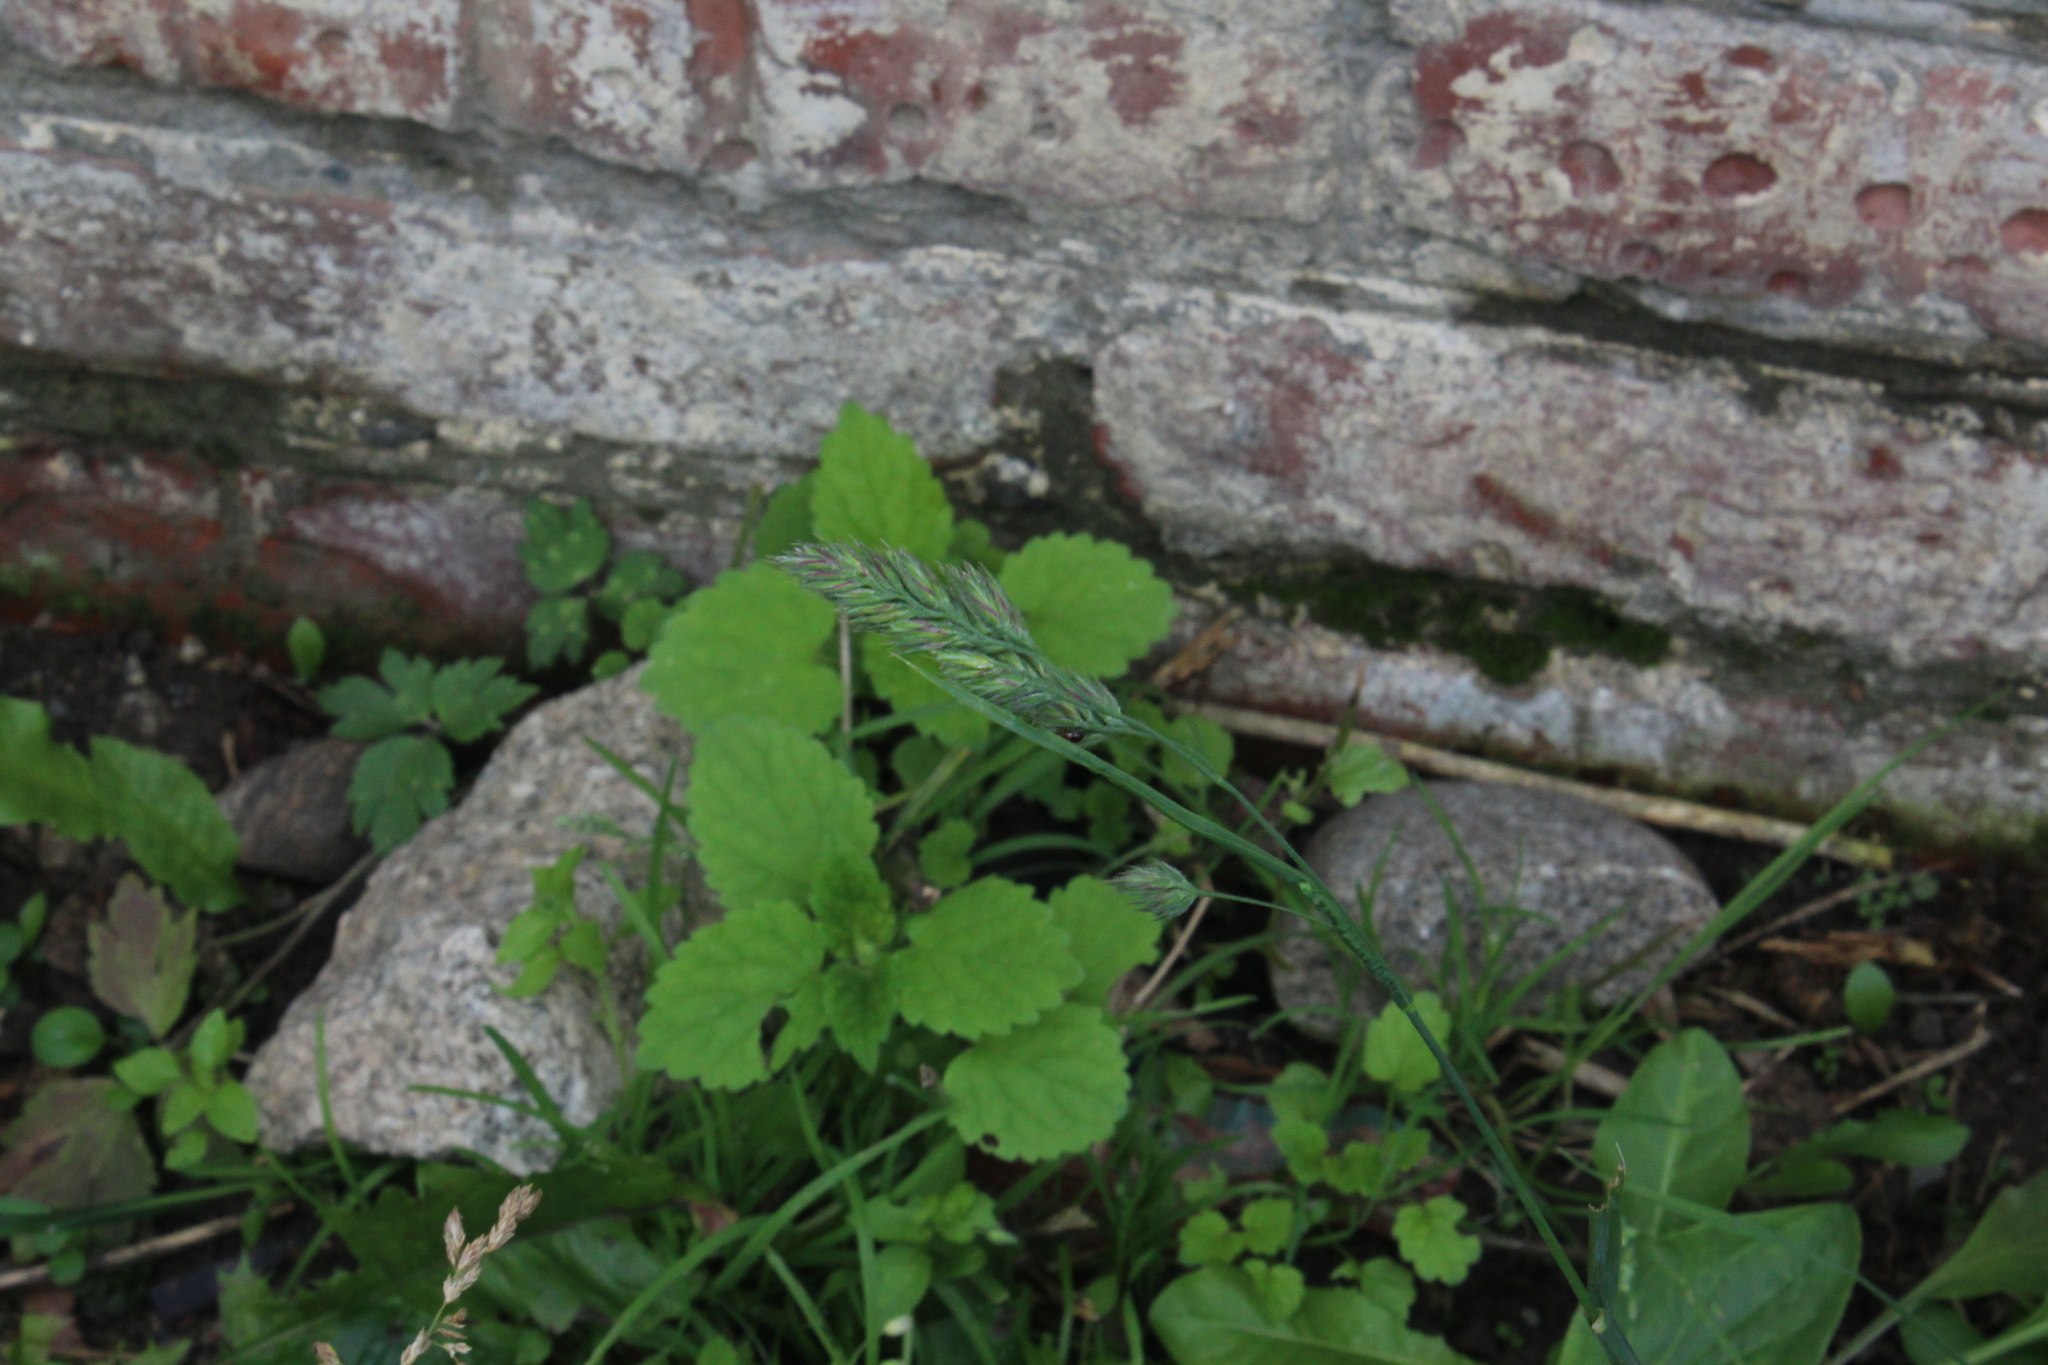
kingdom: Plantae
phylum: Tracheophyta
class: Liliopsida
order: Poales
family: Poaceae
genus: Dactylis
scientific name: Dactylis glomerata
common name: Orchardgrass
